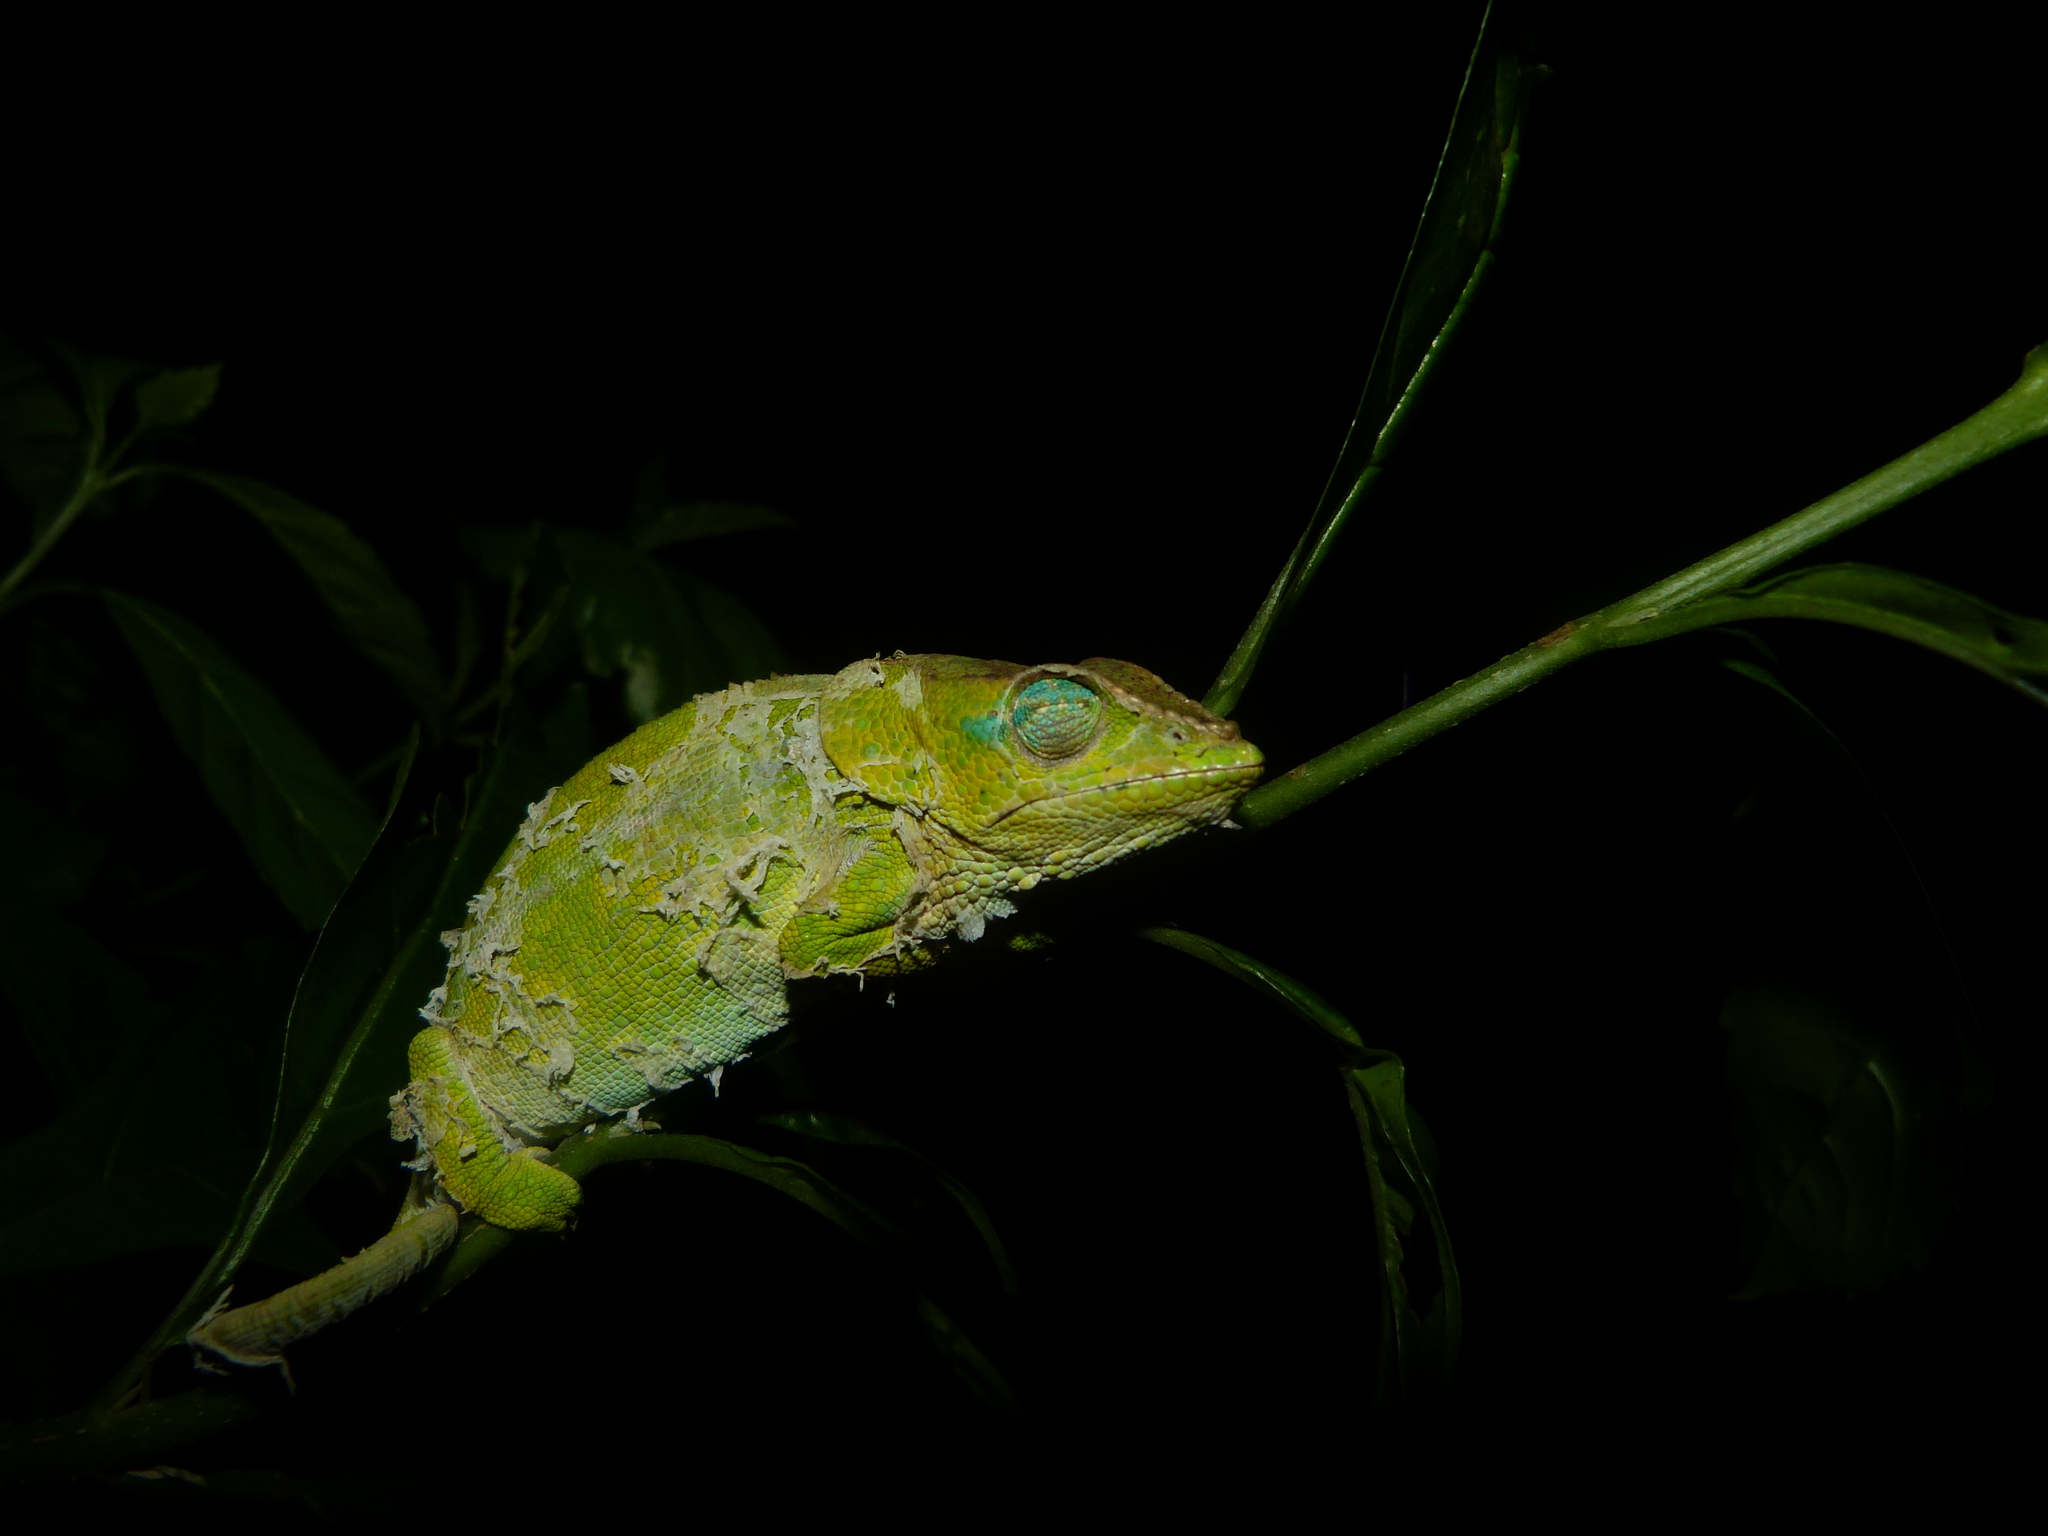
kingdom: Animalia
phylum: Chordata
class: Squamata
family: Chamaeleonidae
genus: Calumma
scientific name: Calumma amber
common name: Amber mountain chameleon
